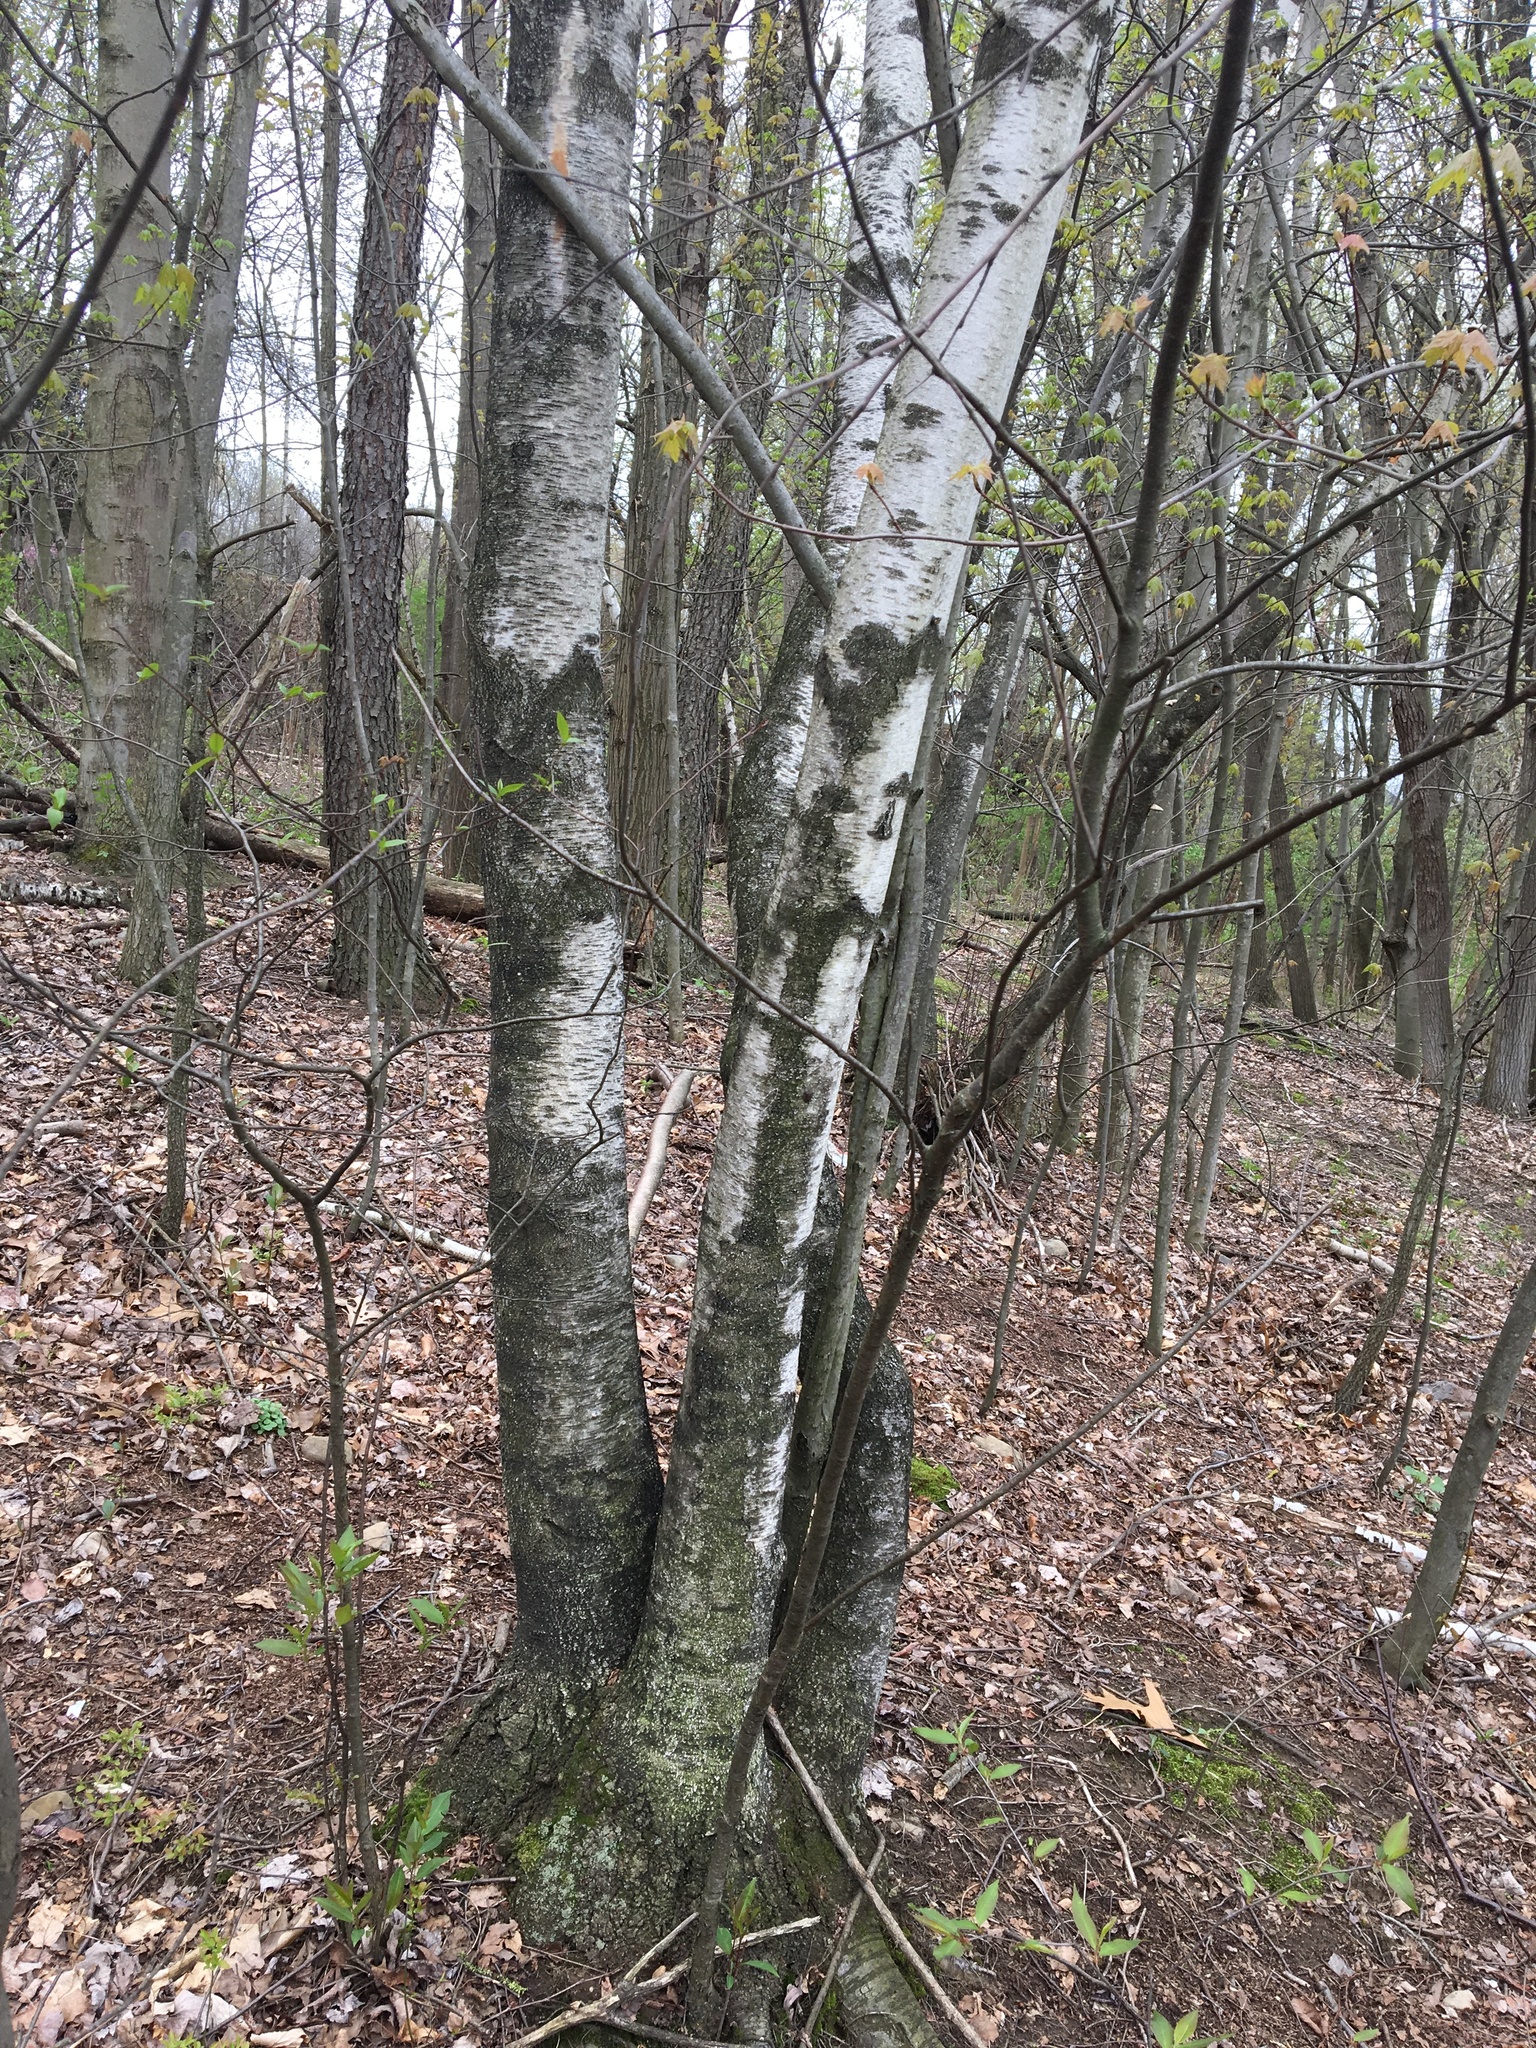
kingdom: Plantae
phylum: Tracheophyta
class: Magnoliopsida
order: Fagales
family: Betulaceae
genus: Betula
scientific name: Betula populifolia
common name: Fire birch
